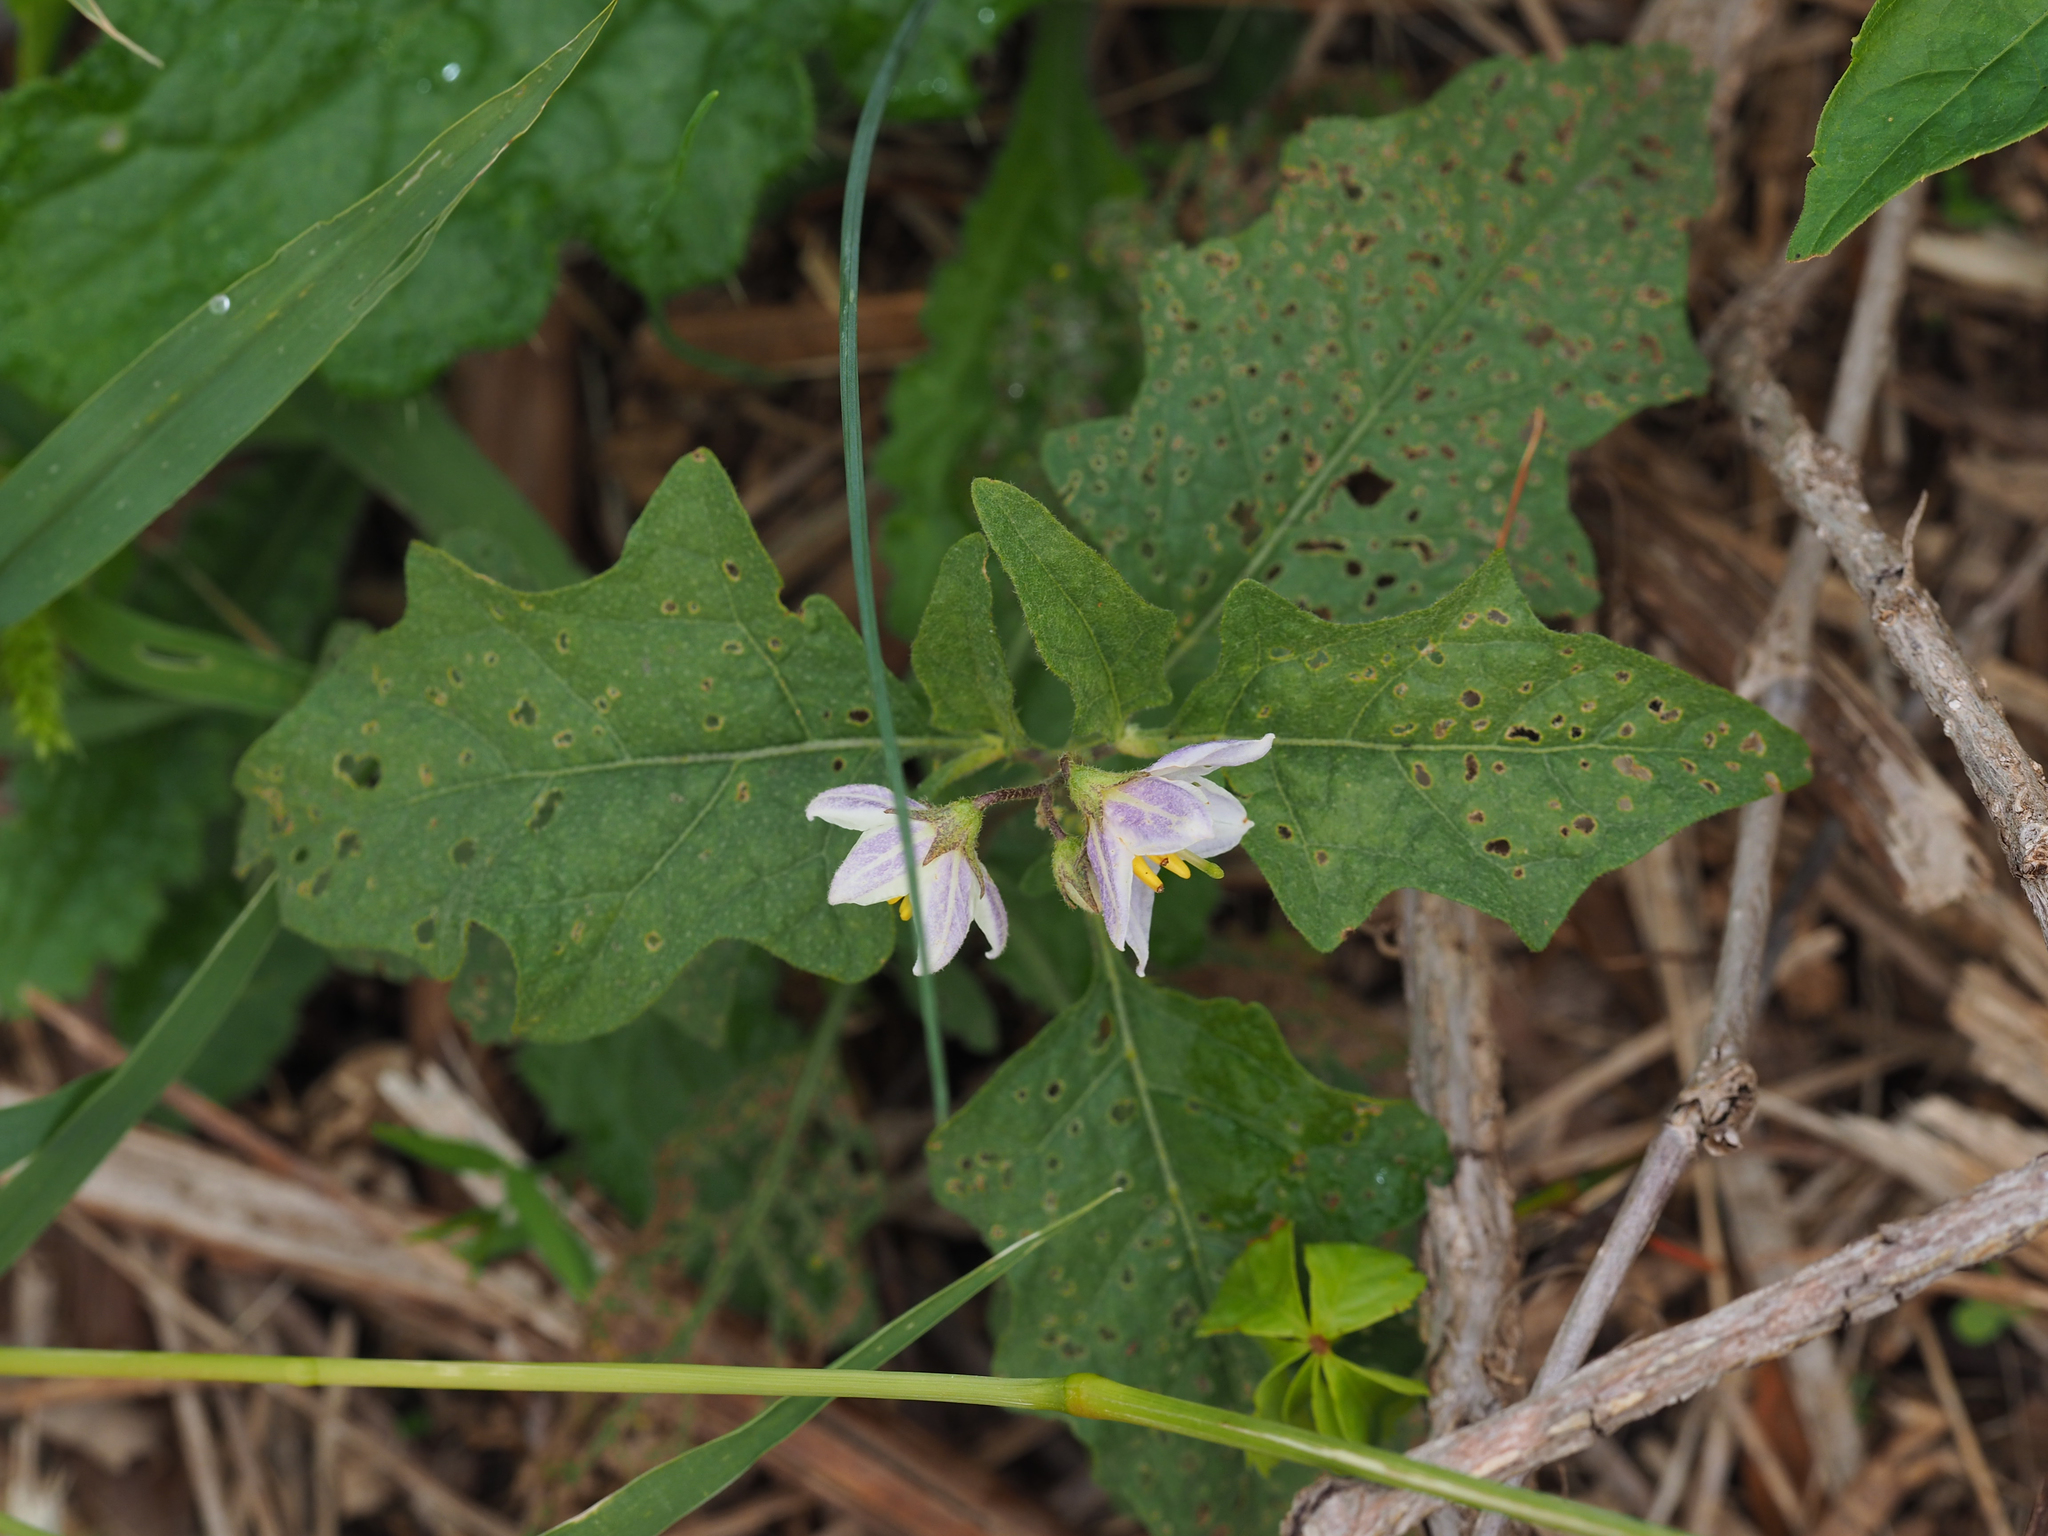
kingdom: Plantae
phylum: Tracheophyta
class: Magnoliopsida
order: Solanales
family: Solanaceae
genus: Solanum
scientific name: Solanum carolinense
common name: Horse-nettle
